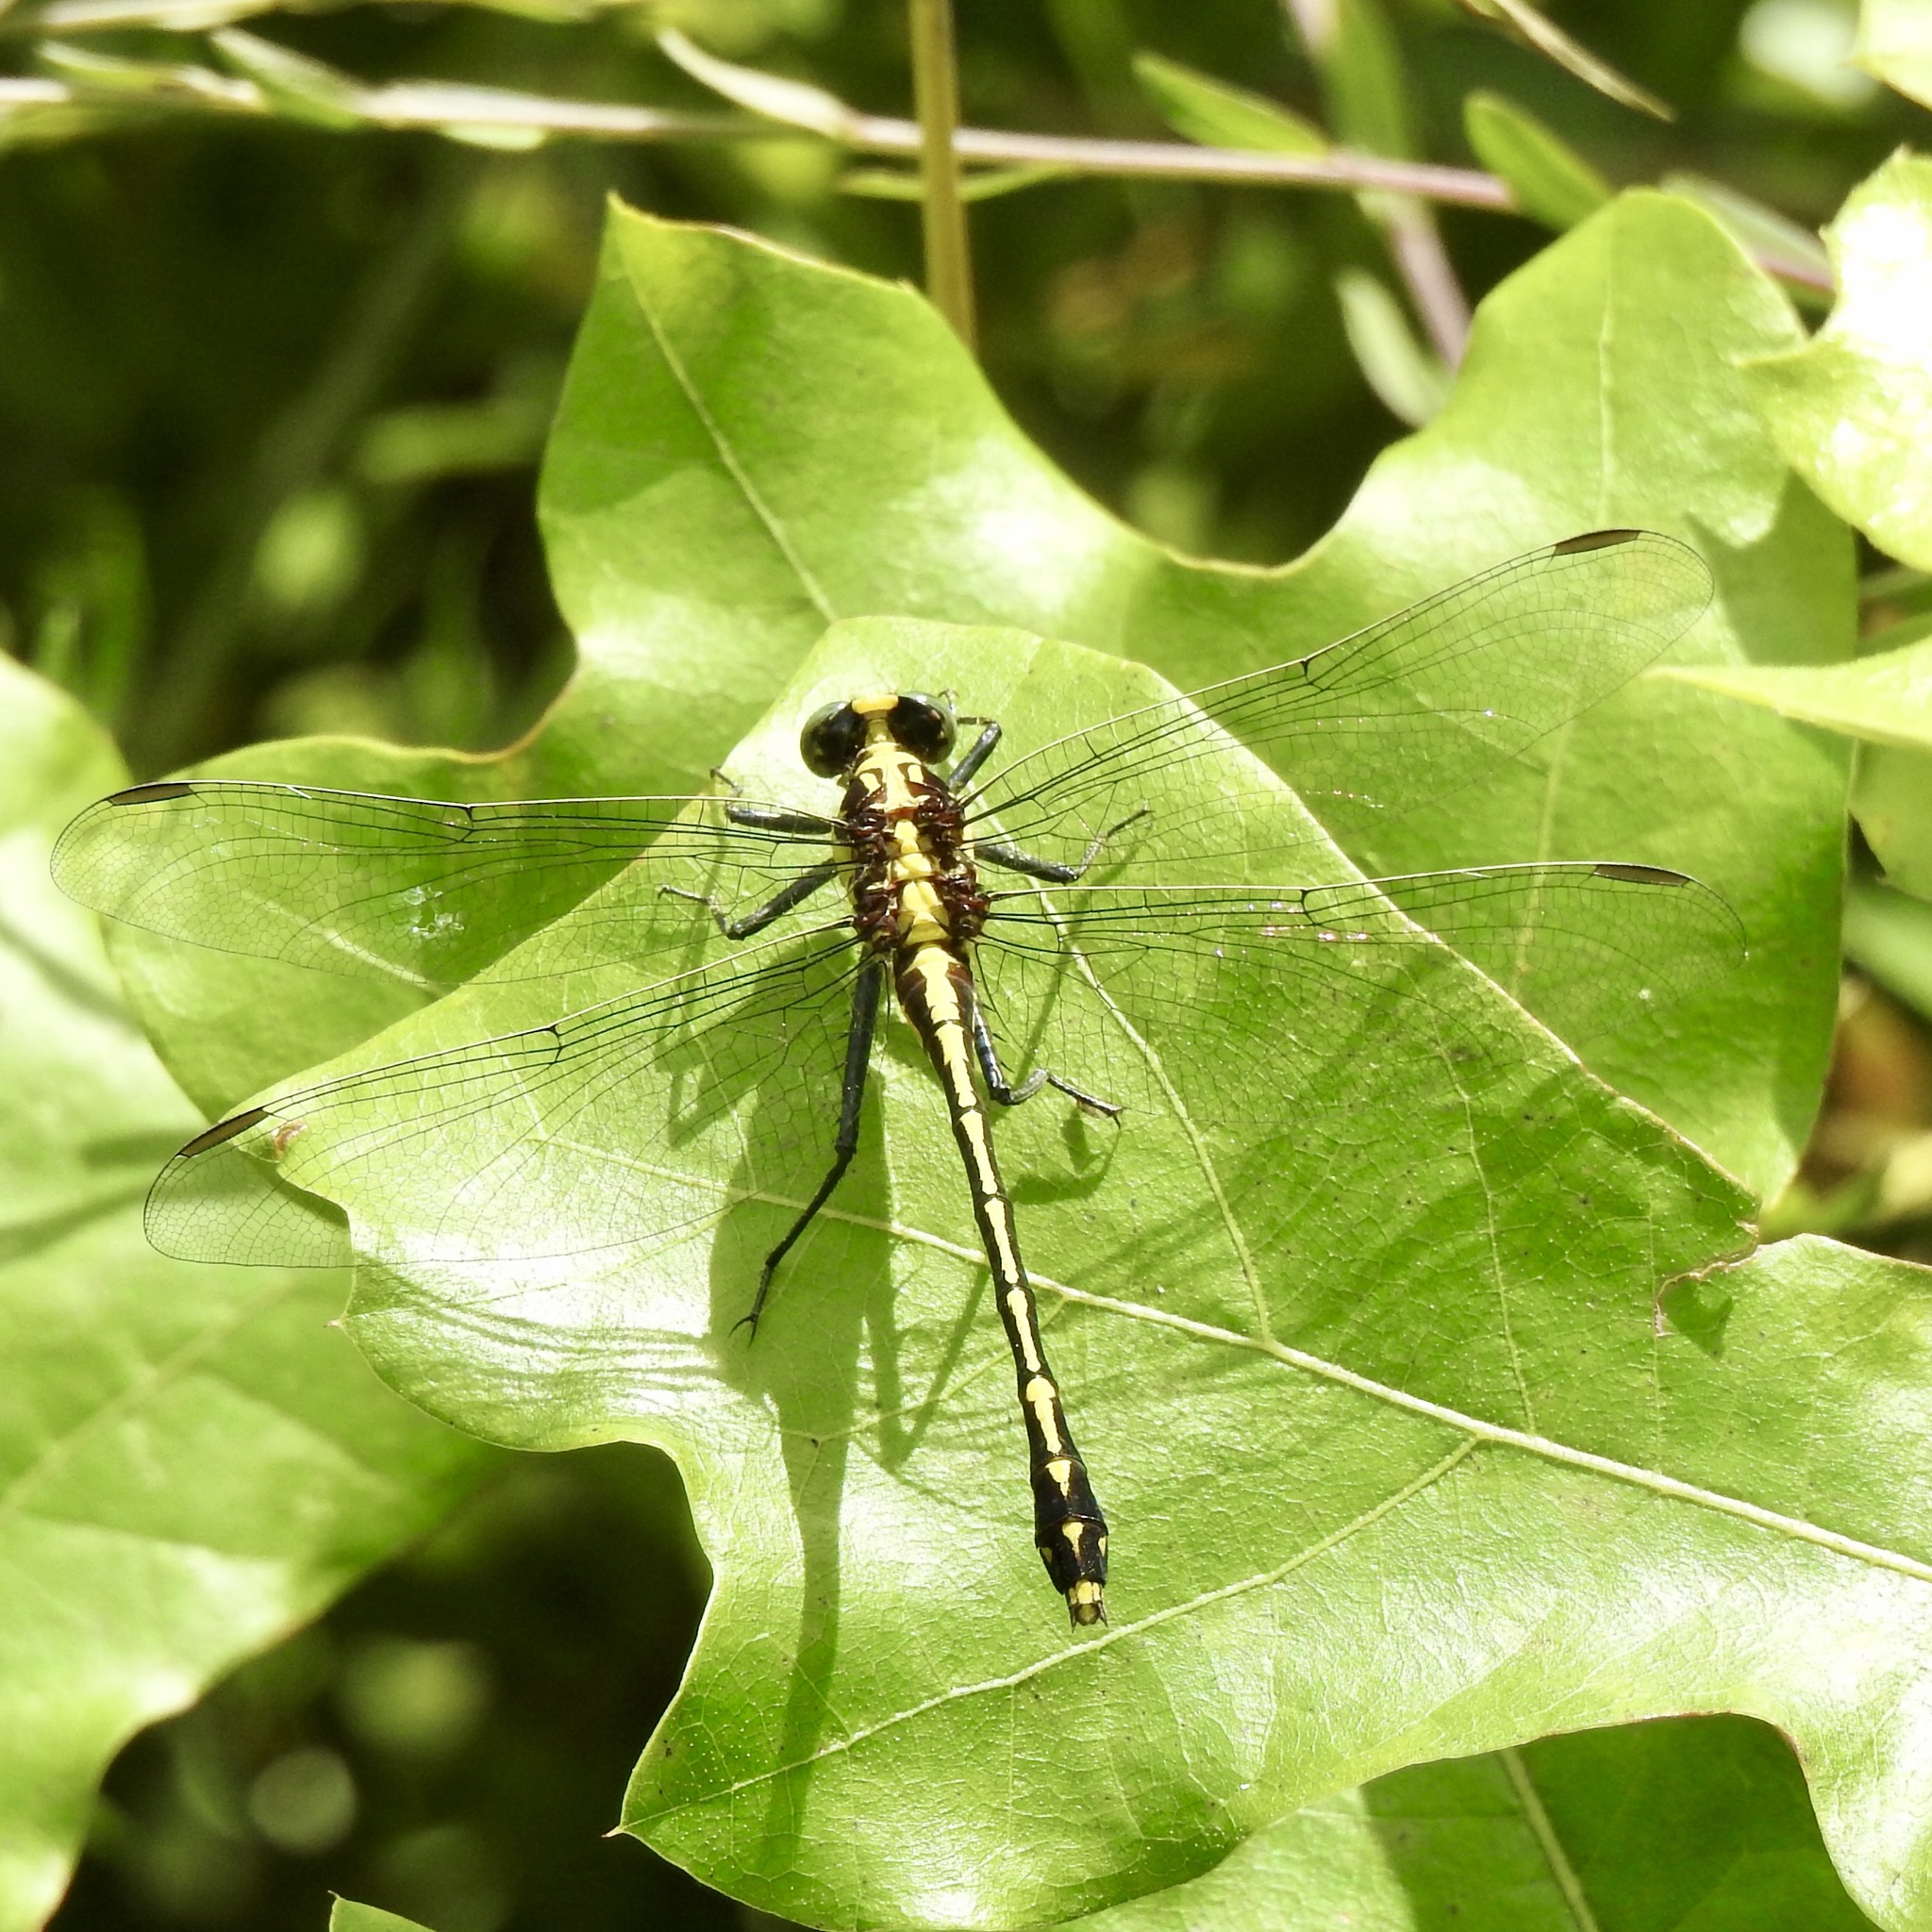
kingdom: Animalia
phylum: Arthropoda
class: Insecta
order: Odonata
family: Gomphidae
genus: Dromogomphus
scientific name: Dromogomphus spinosus
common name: Black-shouldered spinyleg
